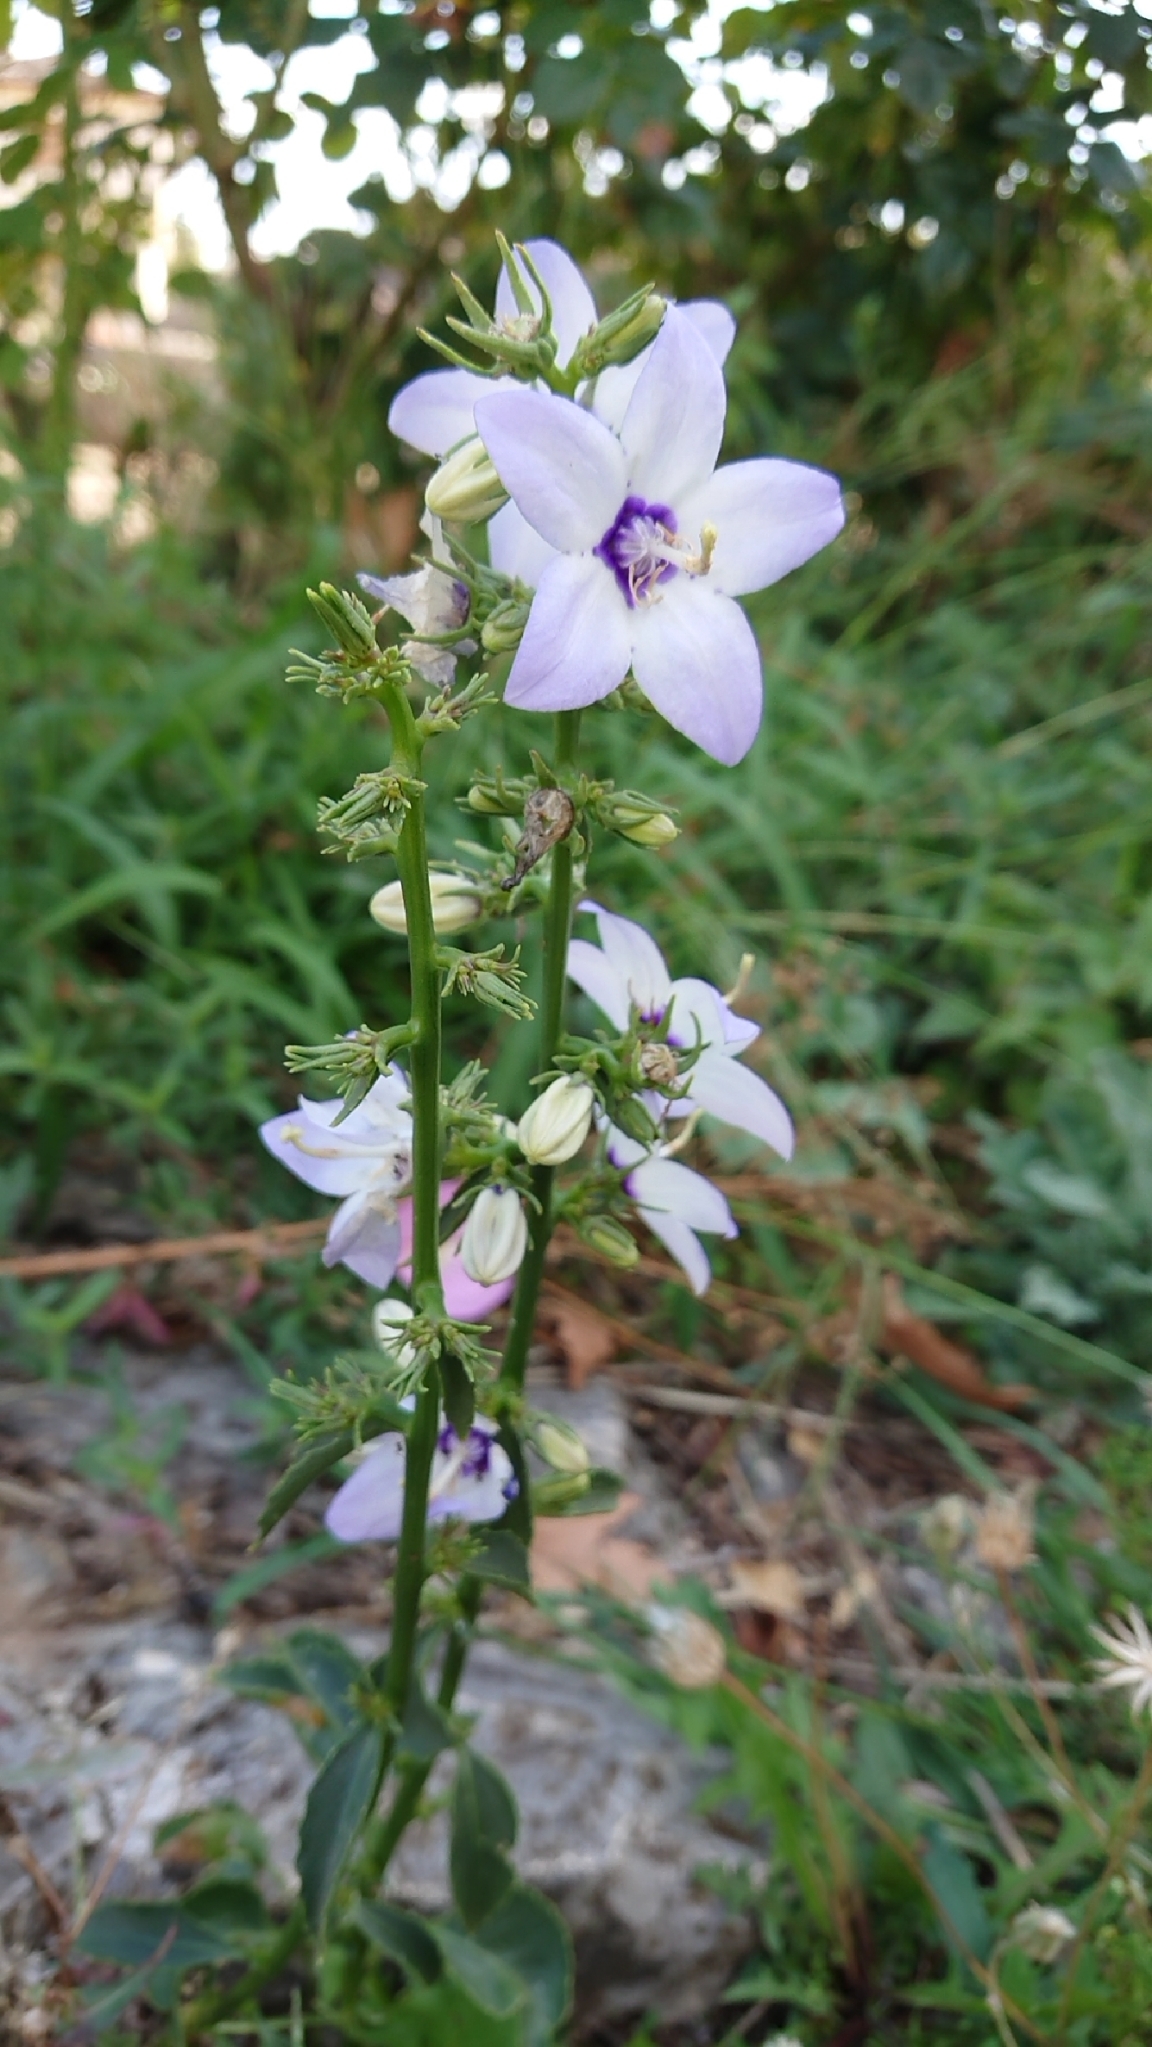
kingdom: Plantae
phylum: Tracheophyta
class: Magnoliopsida
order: Asterales
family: Campanulaceae
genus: Campanula
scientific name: Campanula versicolor
